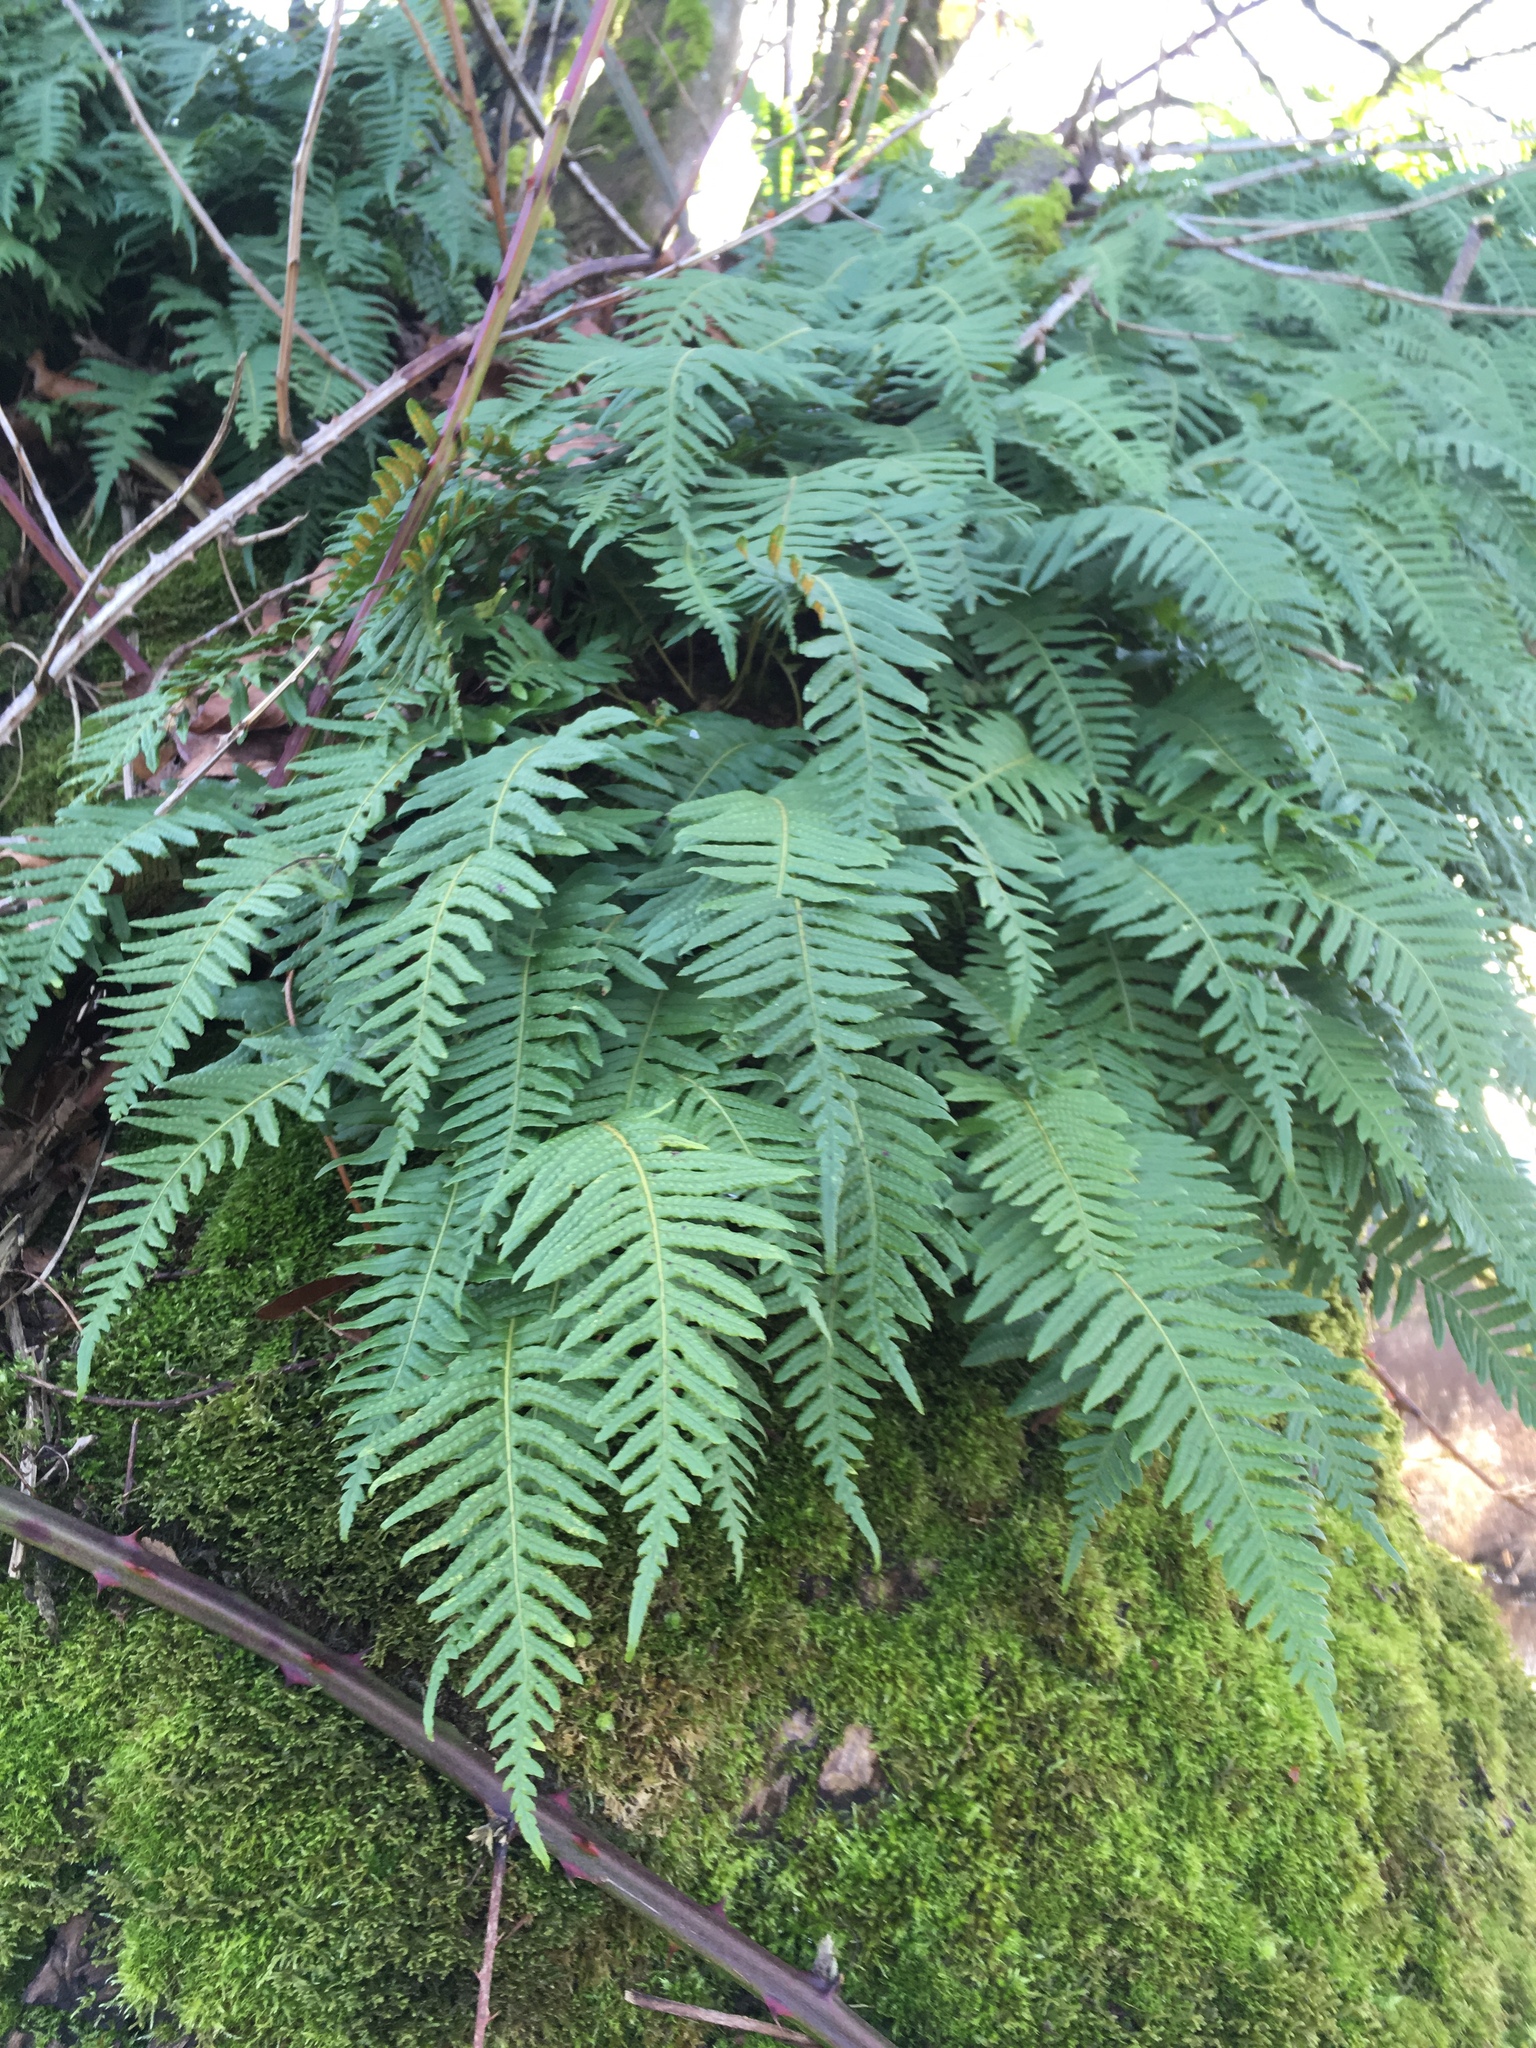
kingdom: Plantae
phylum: Tracheophyta
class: Polypodiopsida
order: Polypodiales
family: Polypodiaceae
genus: Polypodium
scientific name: Polypodium glycyrrhiza
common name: Licorice fern
